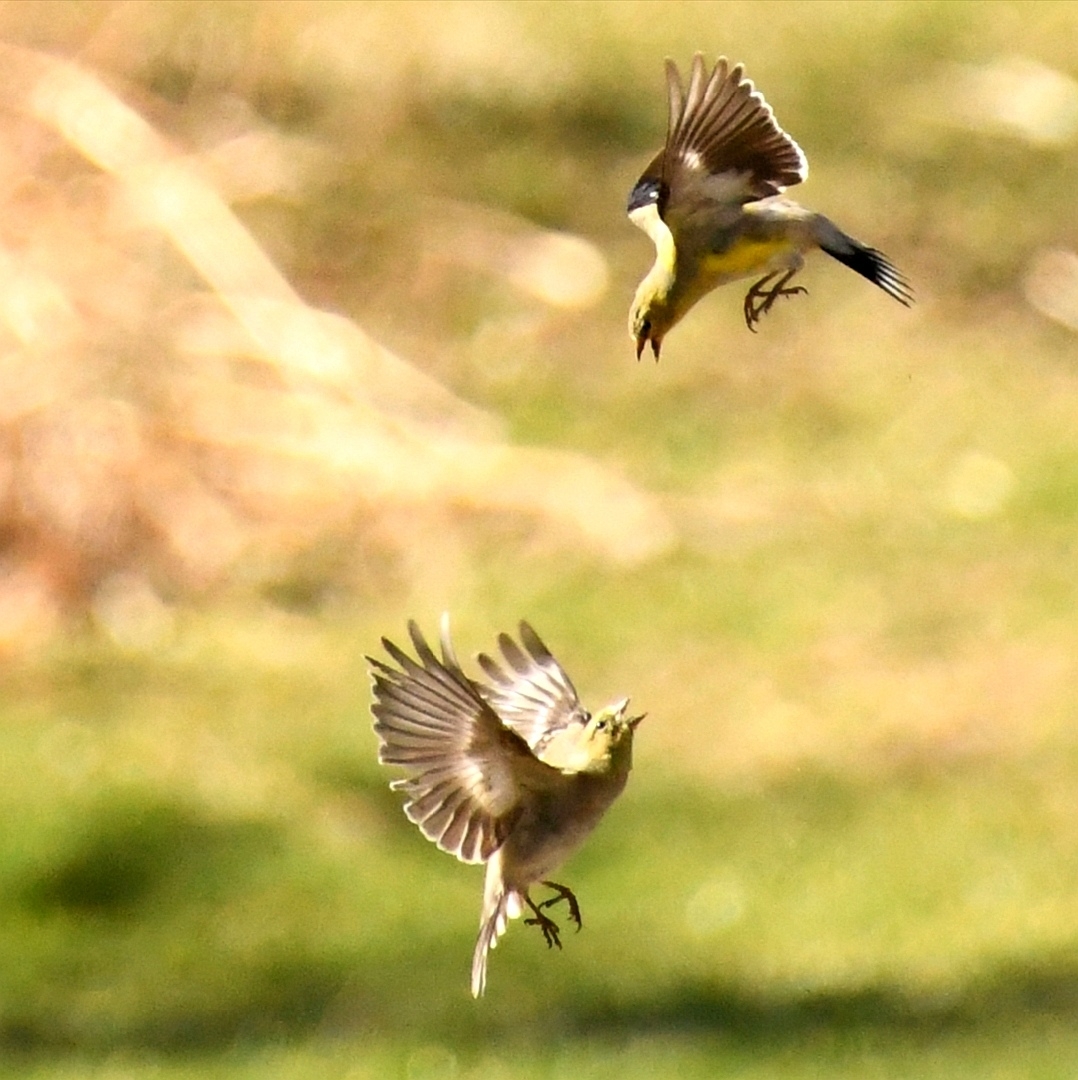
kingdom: Animalia
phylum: Chordata
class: Aves
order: Passeriformes
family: Fringillidae
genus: Spinus
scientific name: Spinus tristis
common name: American goldfinch
